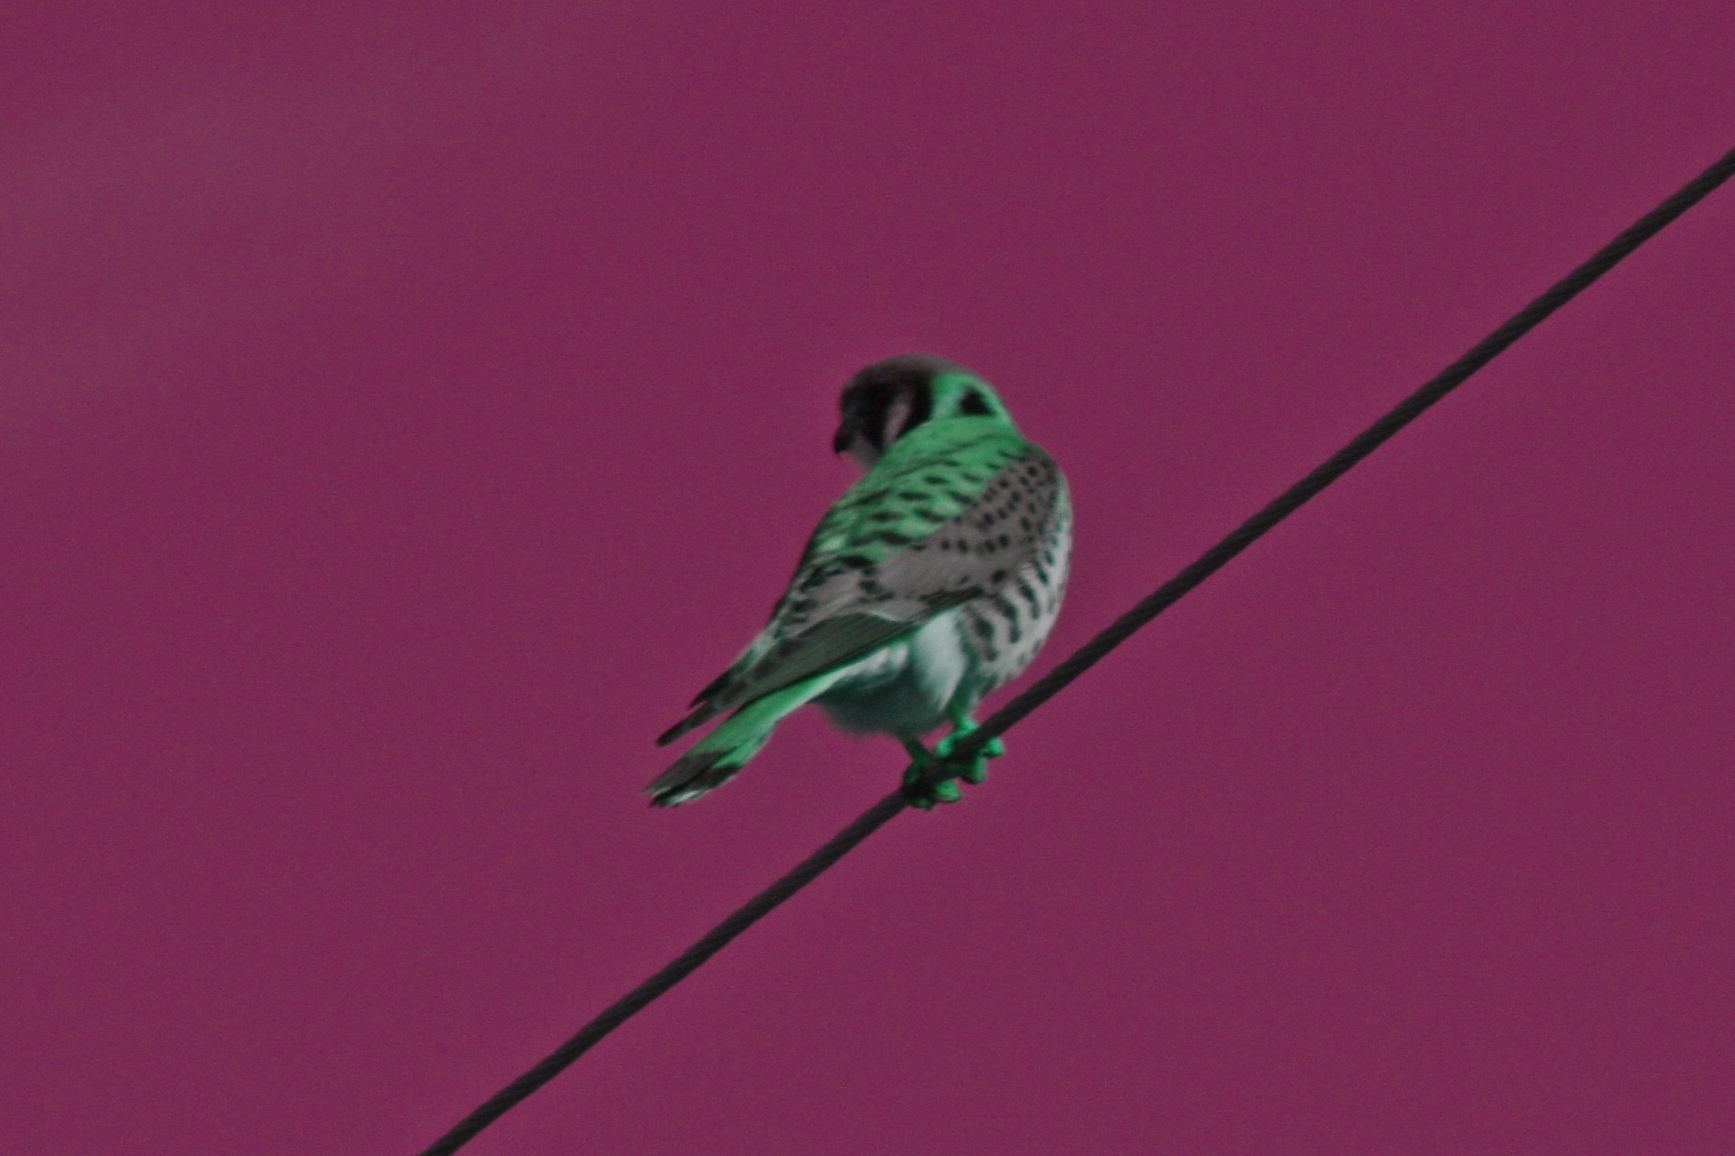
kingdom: Animalia
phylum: Chordata
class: Aves
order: Falconiformes
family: Falconidae
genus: Falco
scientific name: Falco sparverius
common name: American kestrel
